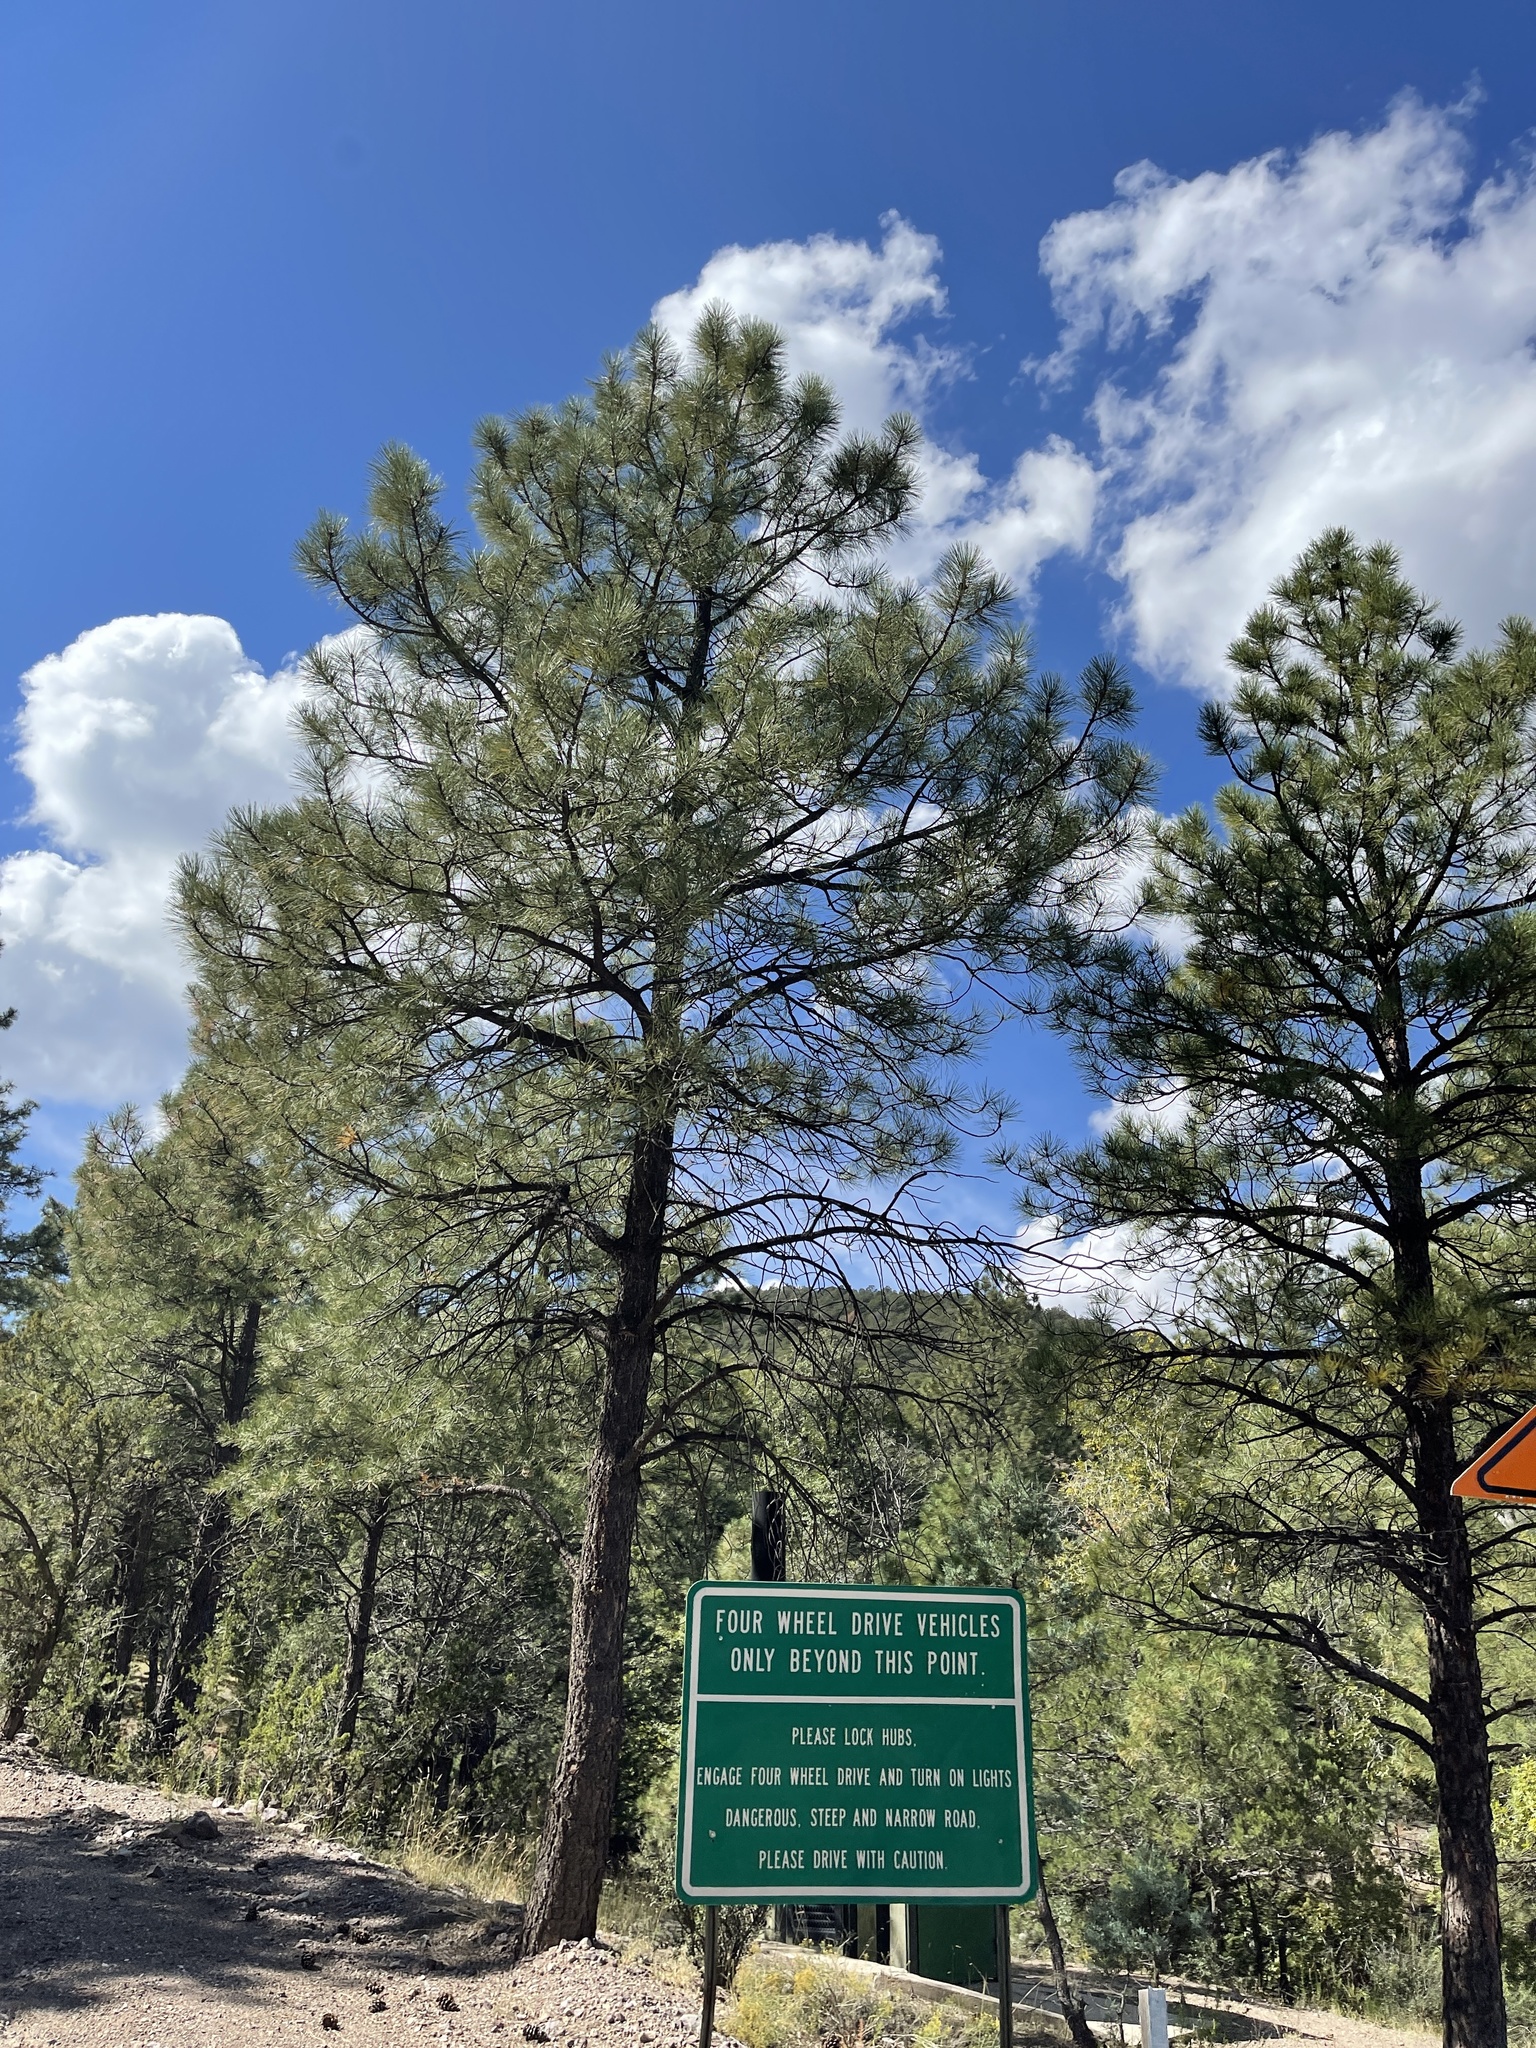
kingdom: Plantae
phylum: Tracheophyta
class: Pinopsida
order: Pinales
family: Pinaceae
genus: Pinus
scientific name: Pinus ponderosa
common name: Western yellow-pine
